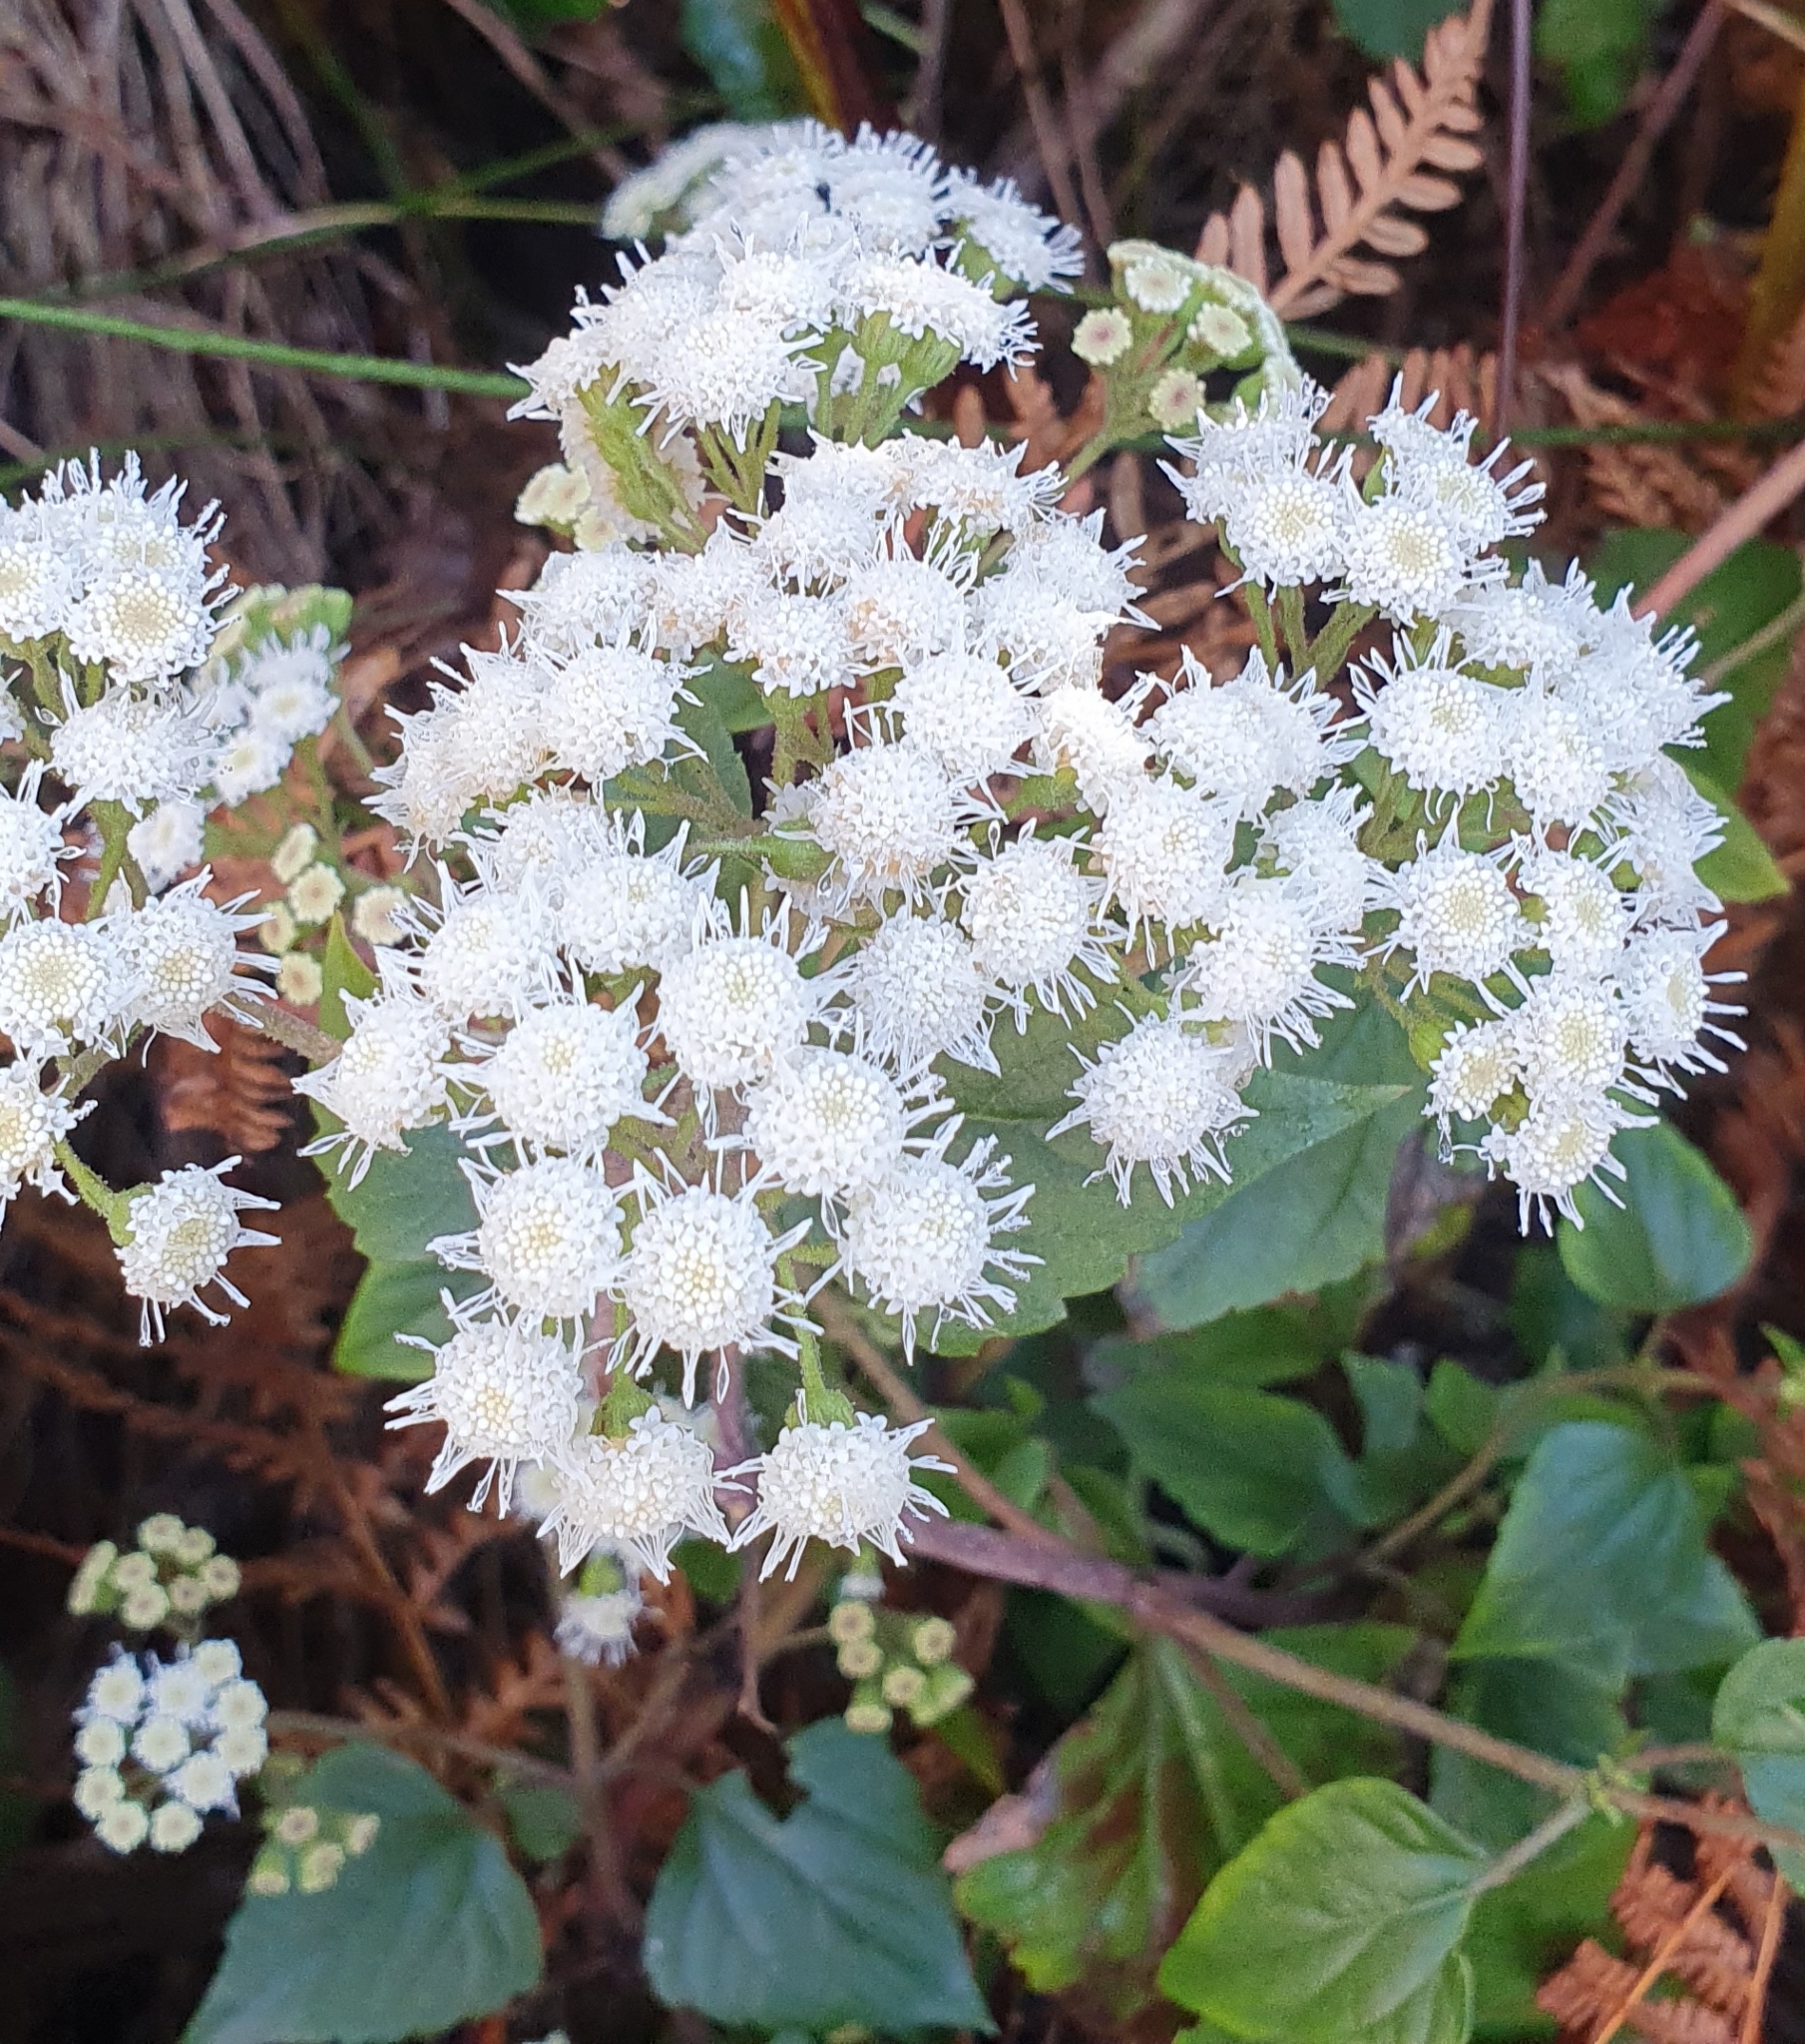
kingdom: Plantae
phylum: Tracheophyta
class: Magnoliopsida
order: Asterales
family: Asteraceae
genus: Ageratina
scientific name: Ageratina adenophora
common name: Sticky snakeroot
